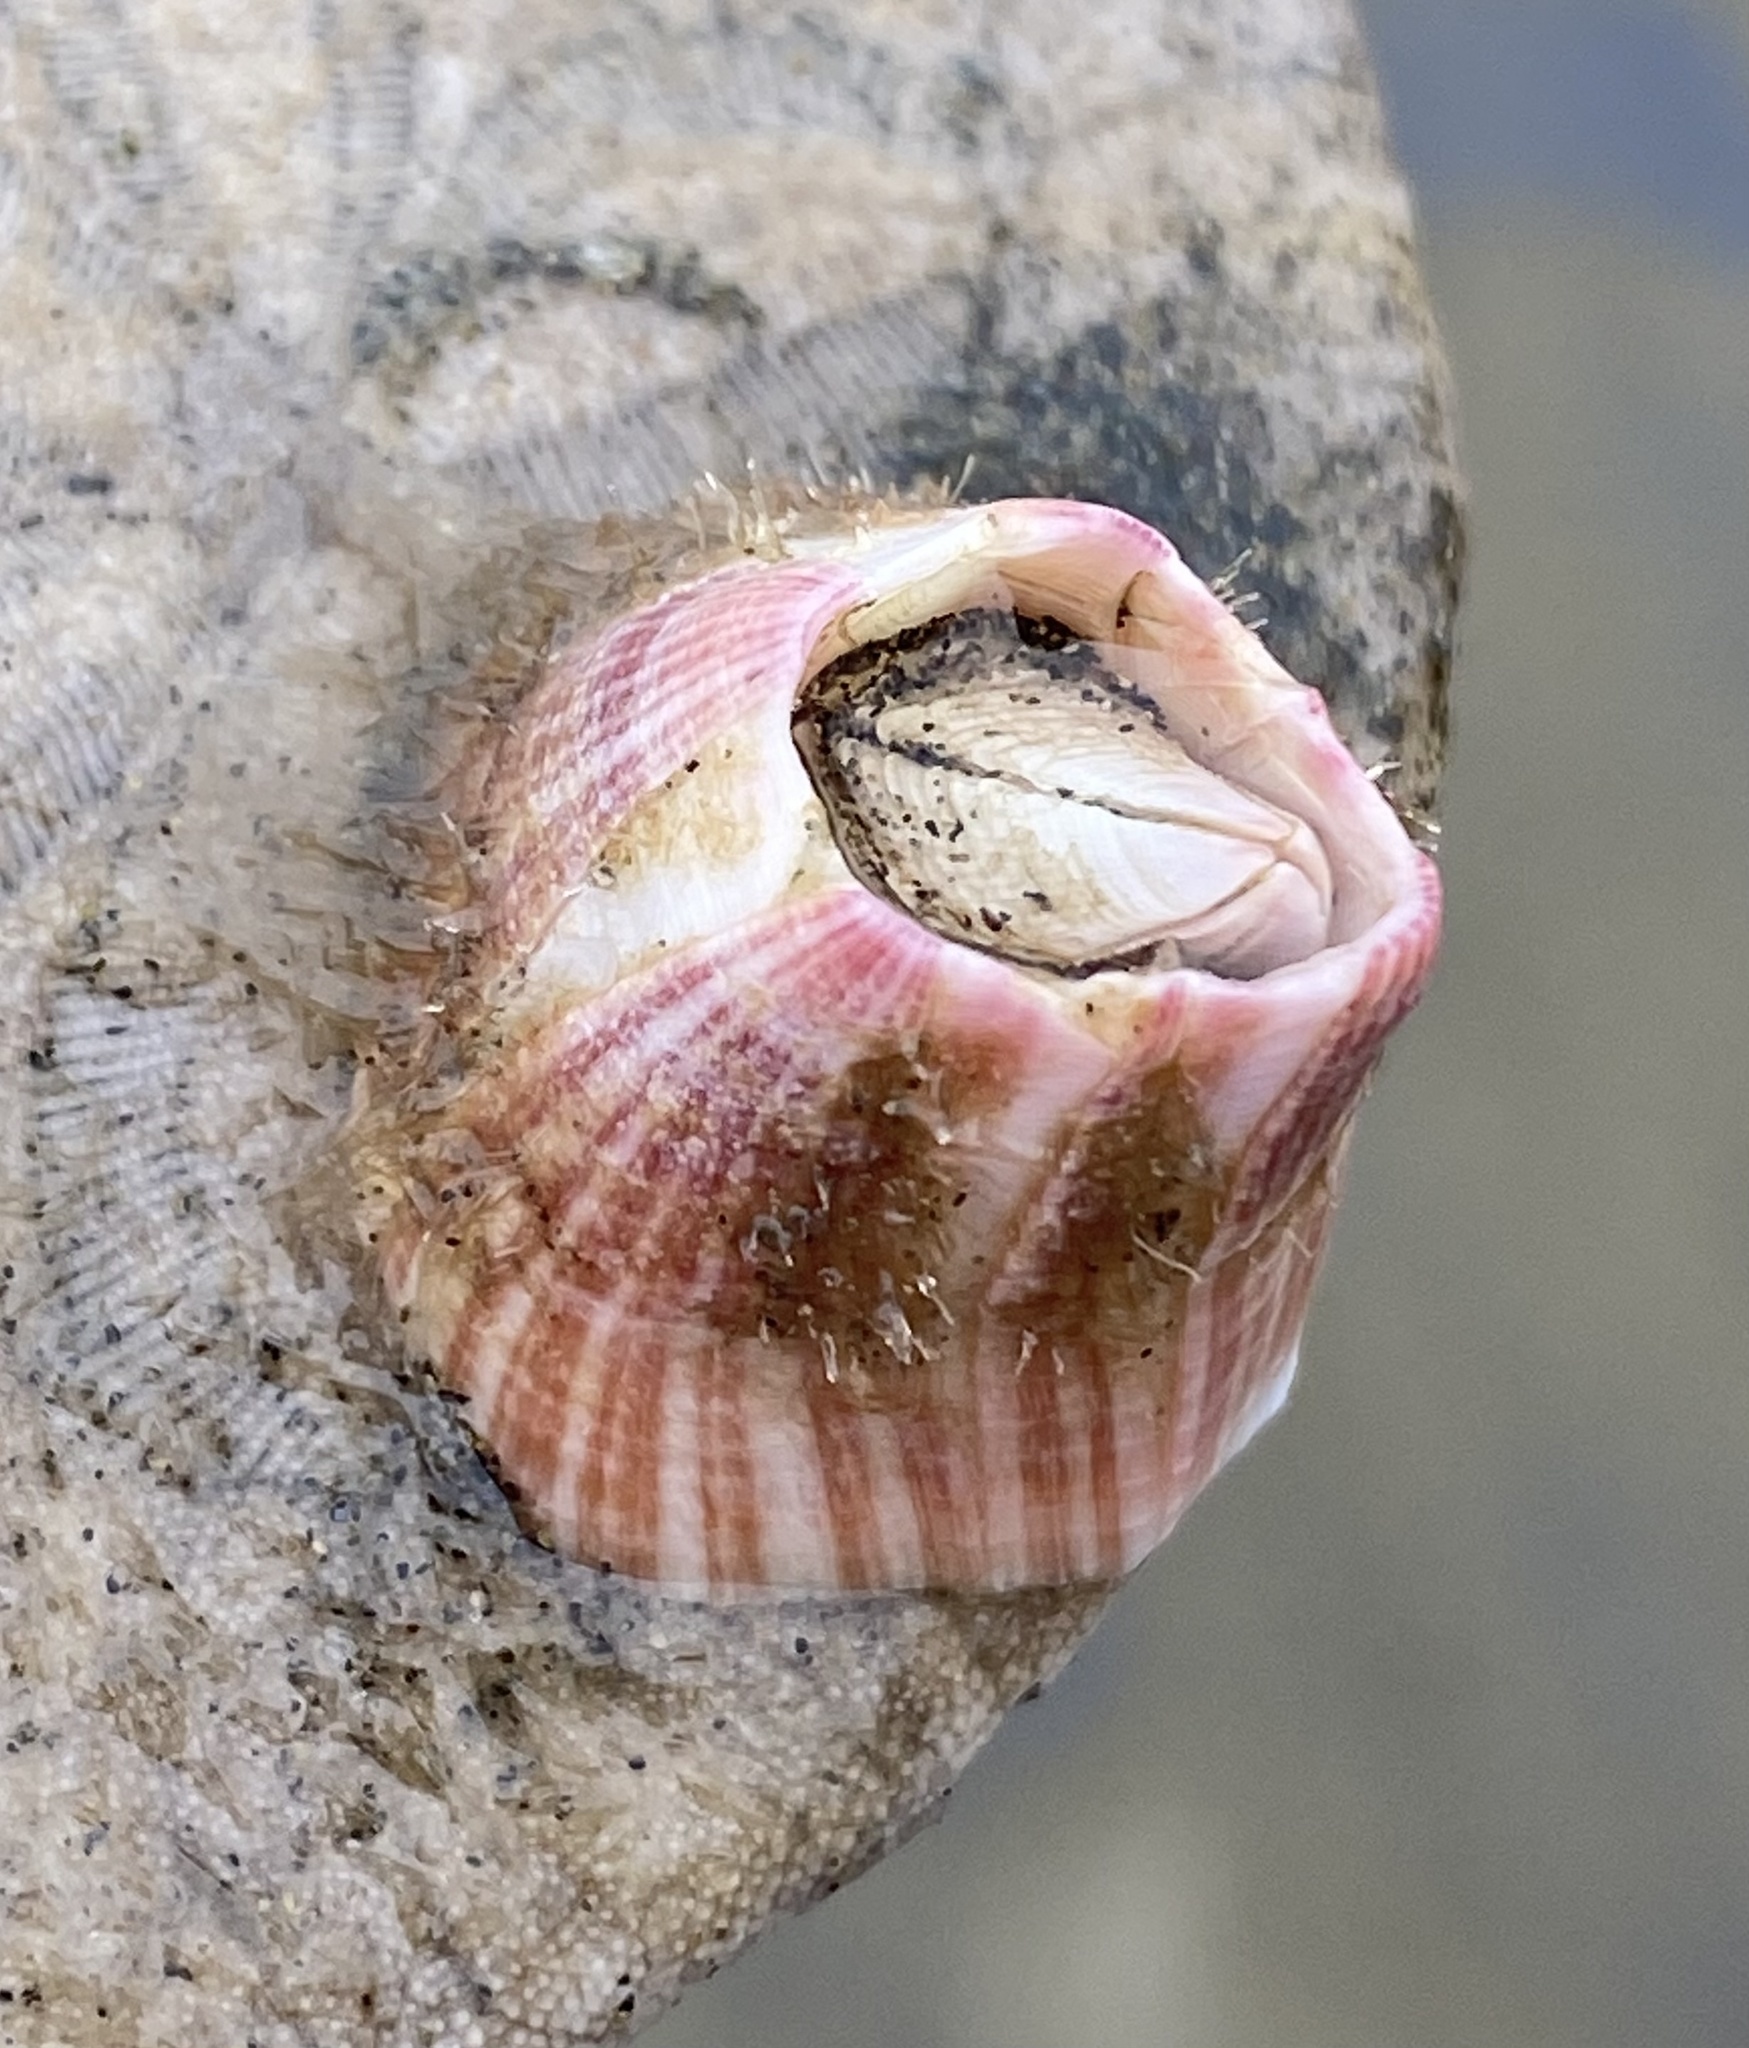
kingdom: Animalia
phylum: Arthropoda
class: Maxillopoda
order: Sessilia
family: Balanidae
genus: Paraconcavus
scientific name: Paraconcavus pacificus
